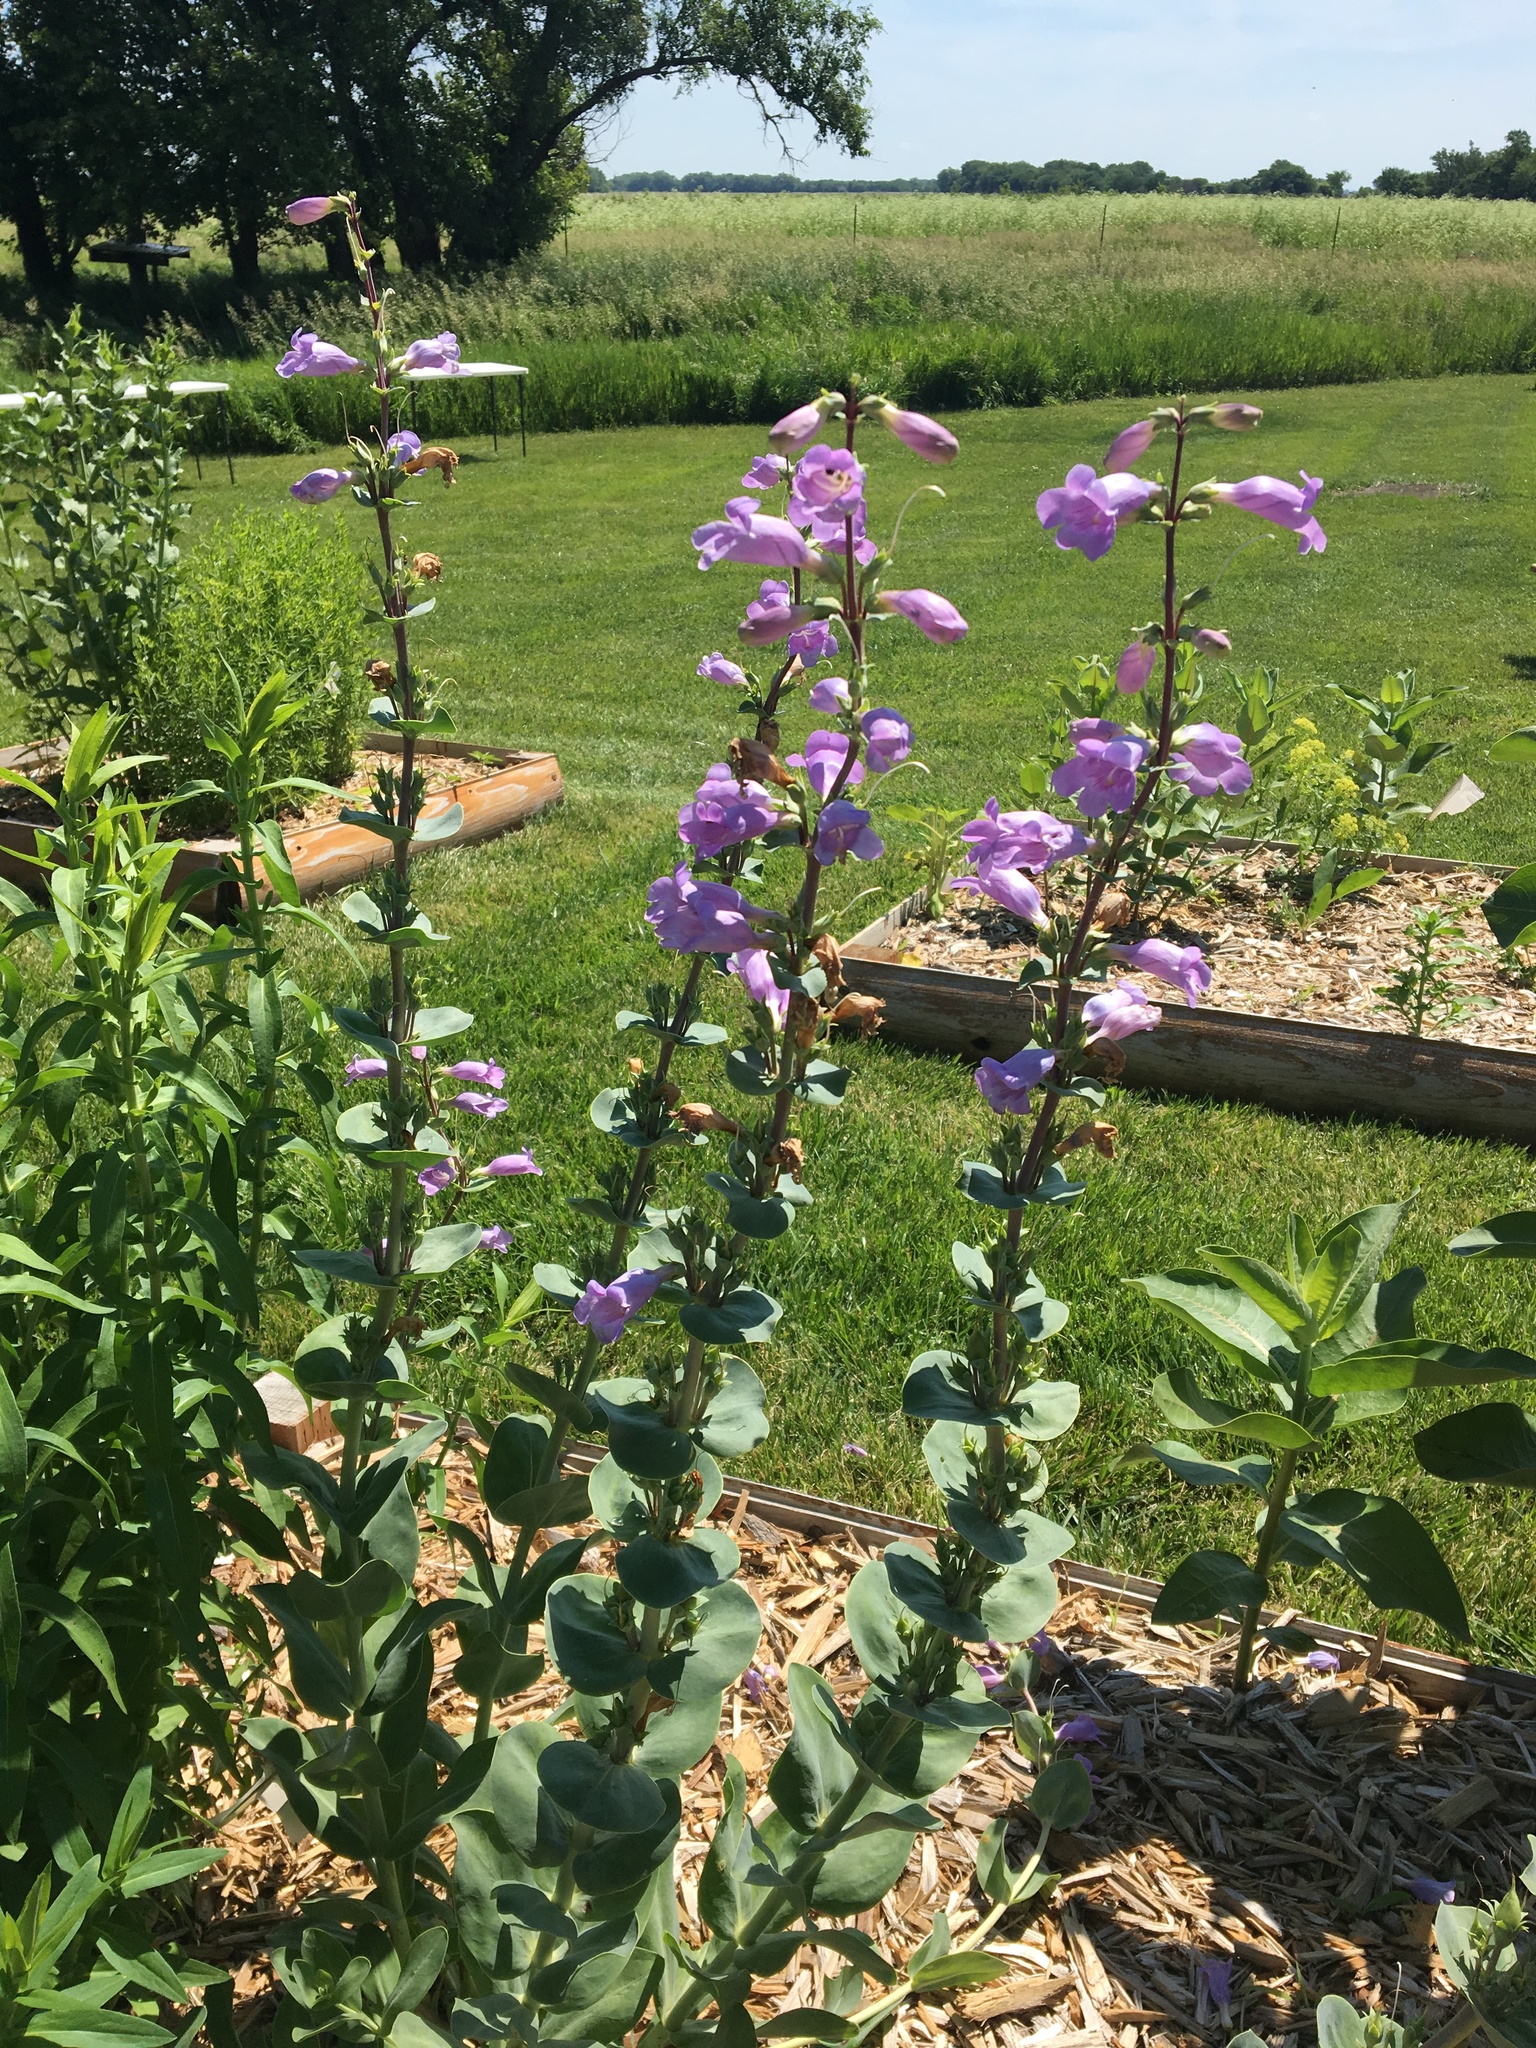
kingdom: Plantae
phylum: Tracheophyta
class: Magnoliopsida
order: Lamiales
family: Plantaginaceae
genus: Penstemon
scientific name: Penstemon
